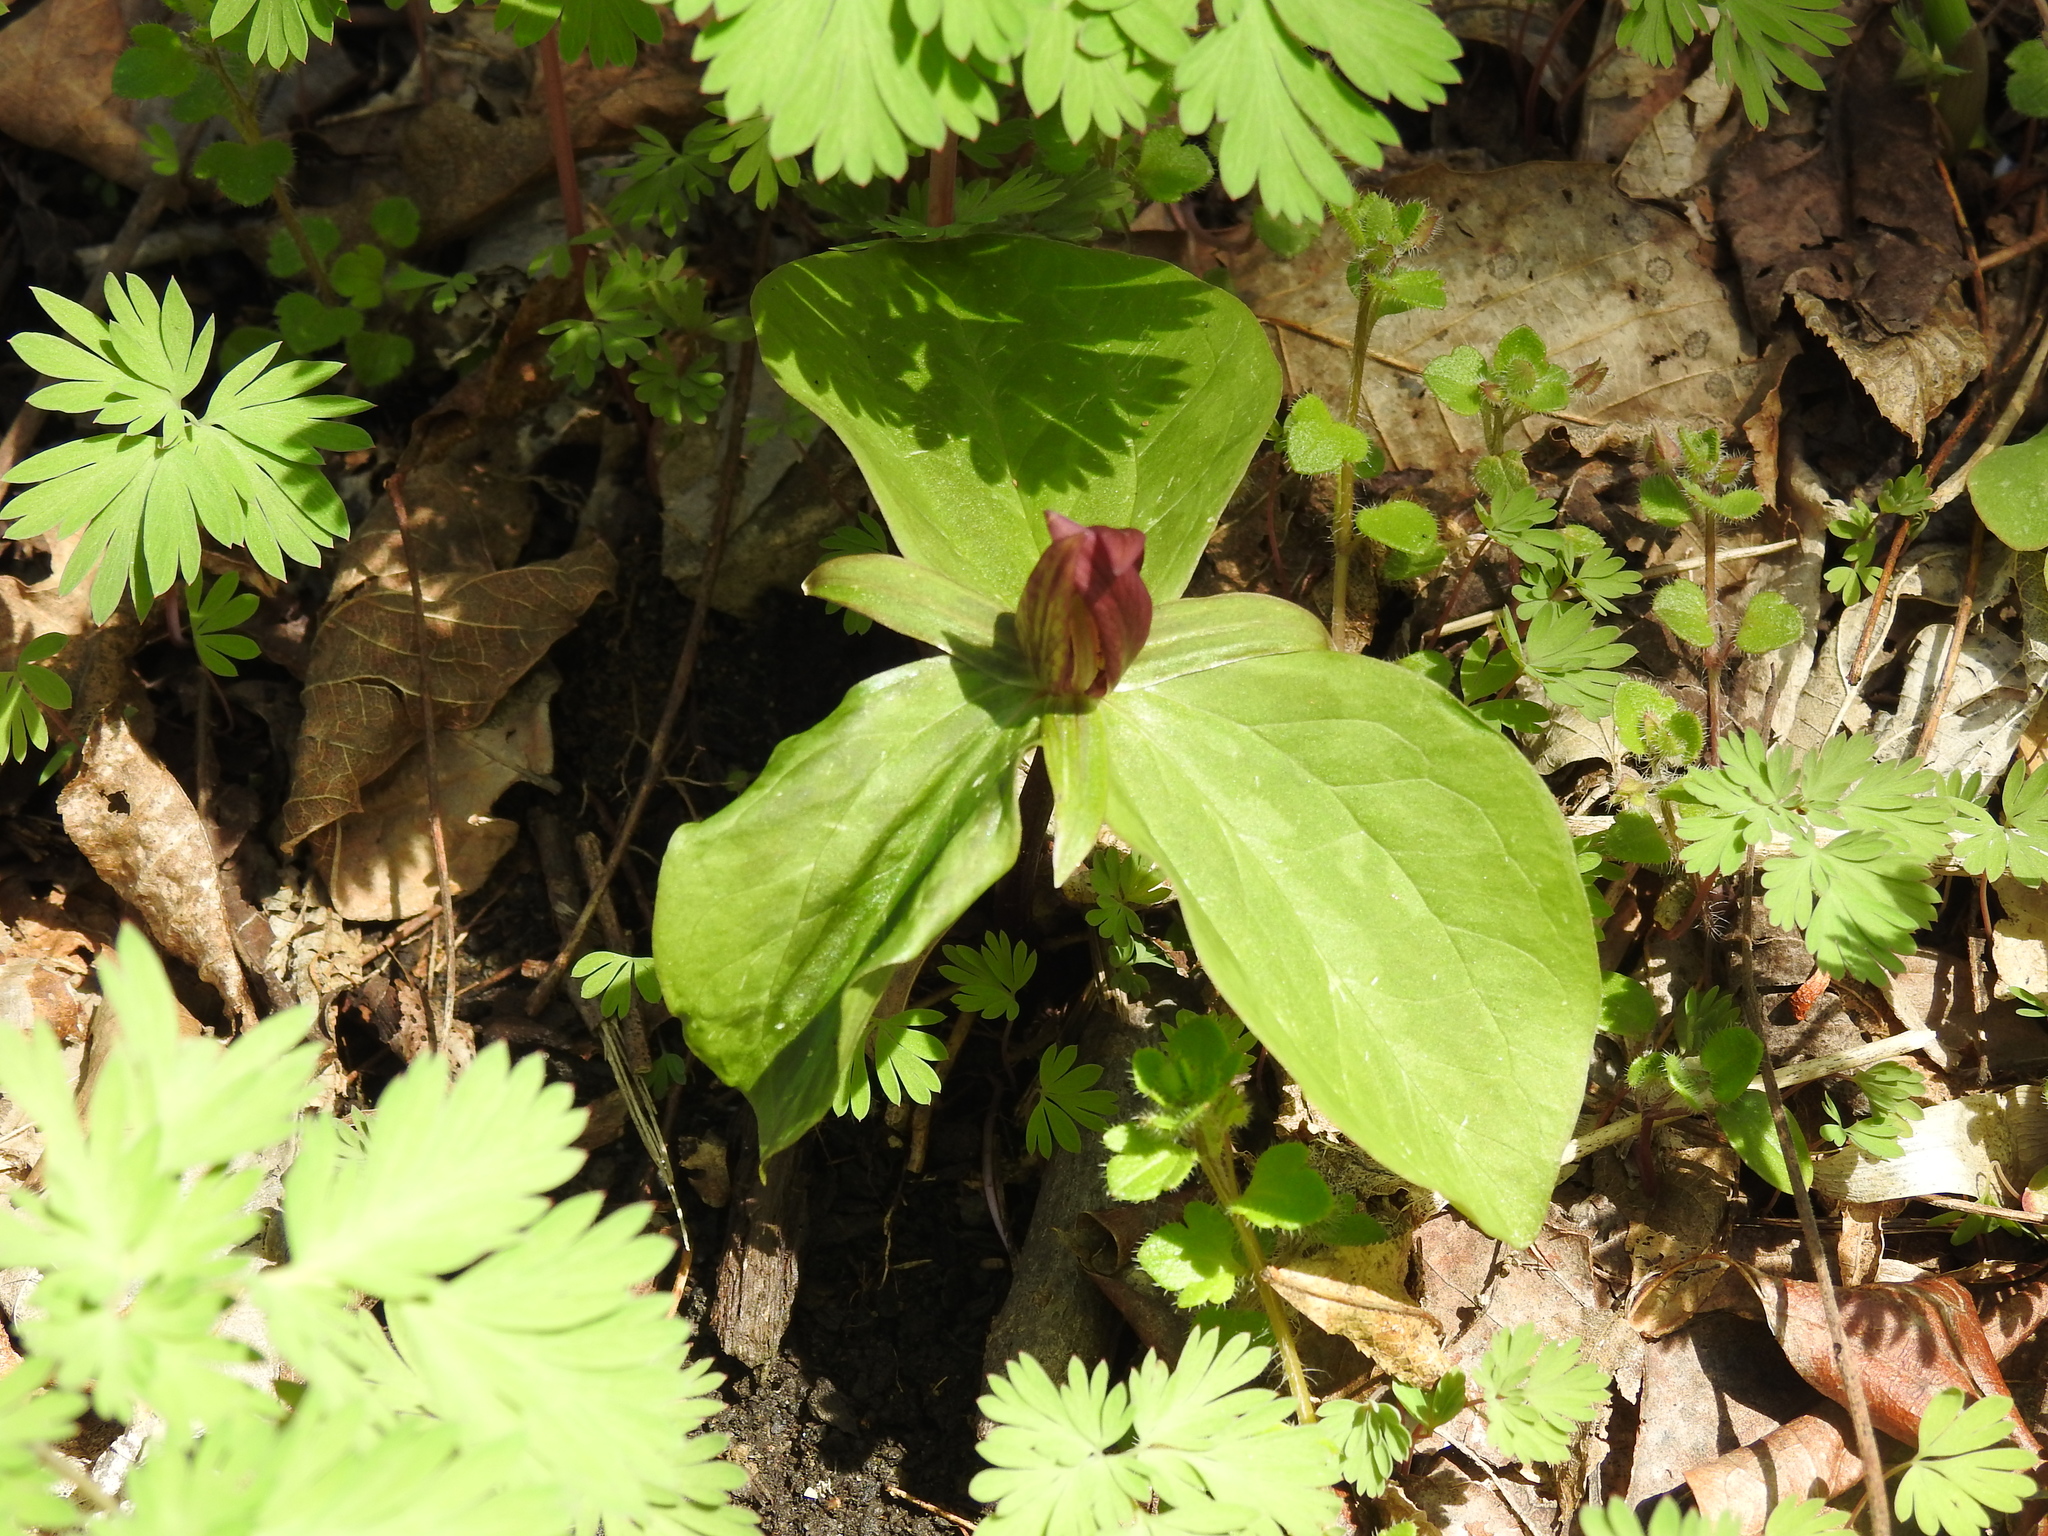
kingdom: Plantae
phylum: Tracheophyta
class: Liliopsida
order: Liliales
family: Melanthiaceae
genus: Trillium
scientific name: Trillium sessile
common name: Sessile trillium
